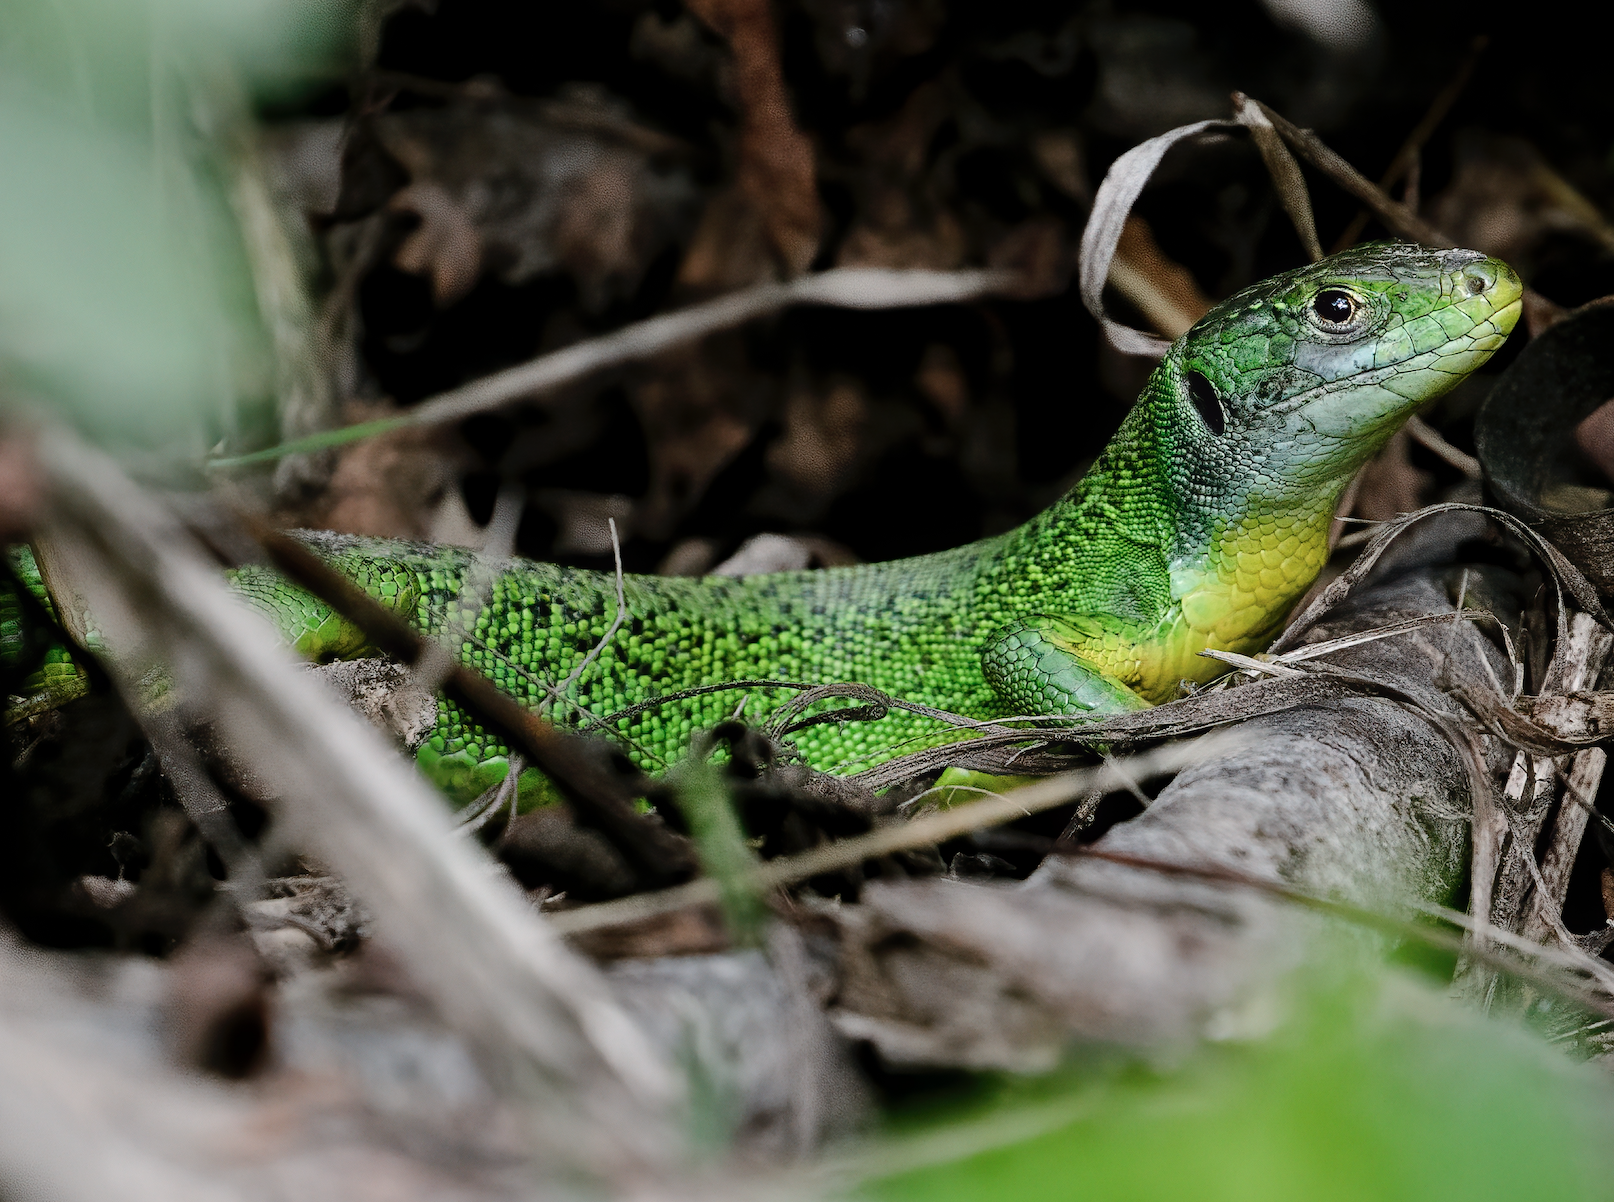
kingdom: Animalia
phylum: Chordata
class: Squamata
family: Lacertidae
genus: Lacerta
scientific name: Lacerta bilineata
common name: Western green lizard
